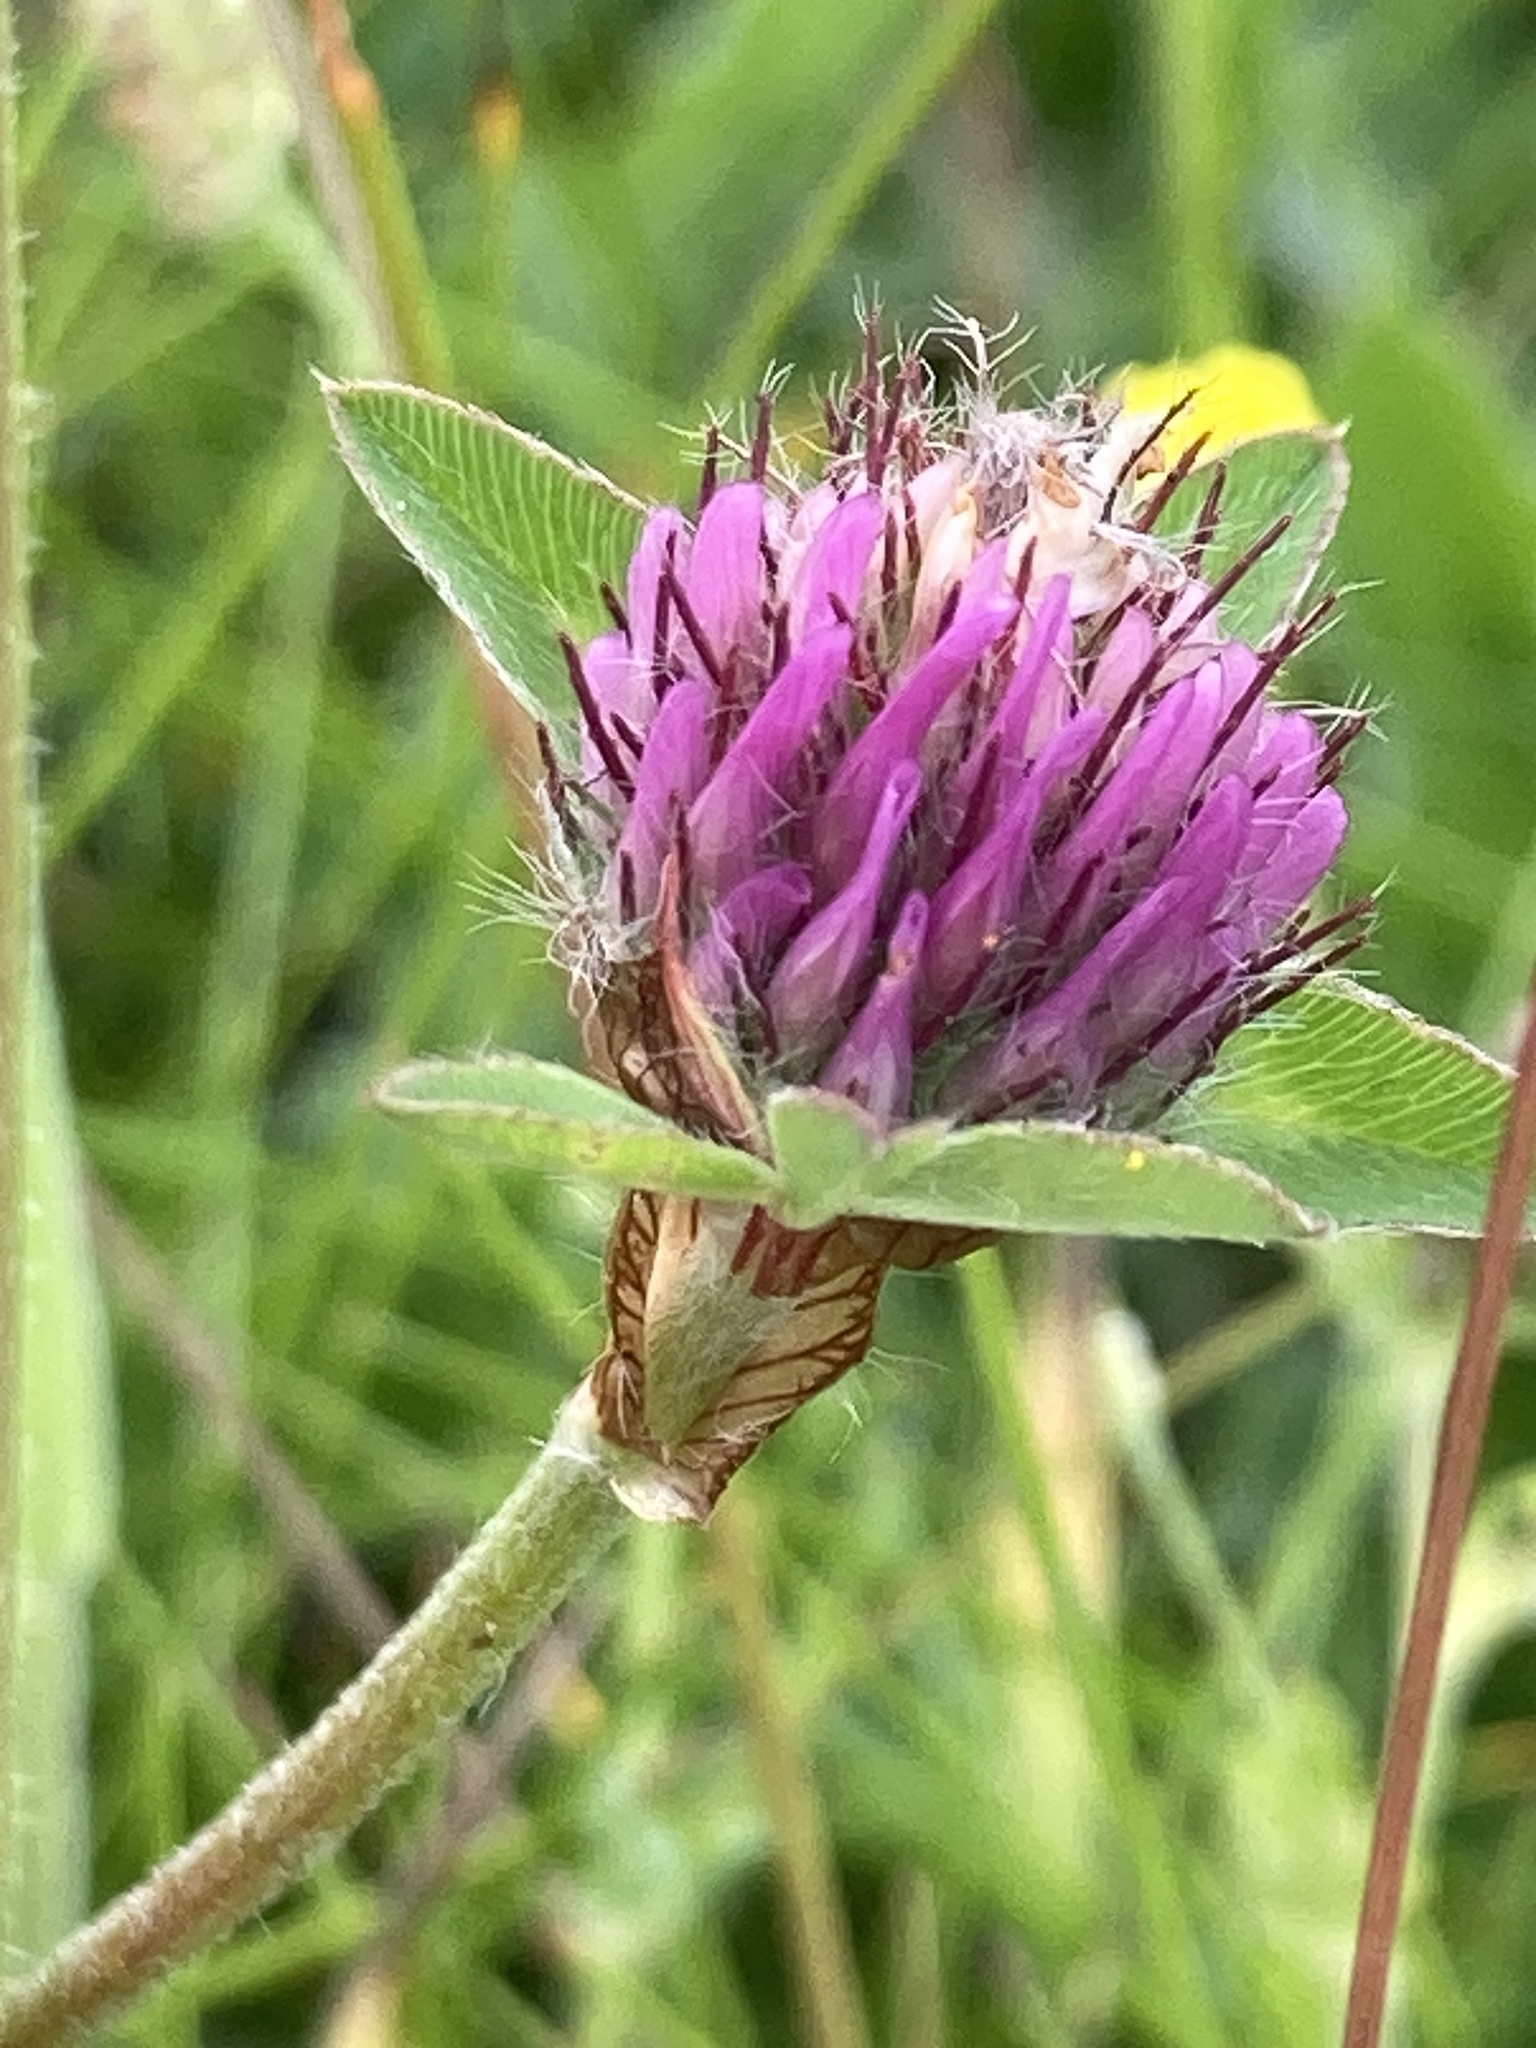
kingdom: Plantae
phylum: Tracheophyta
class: Magnoliopsida
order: Fabales
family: Fabaceae
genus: Trifolium
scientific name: Trifolium pratense
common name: Red clover
